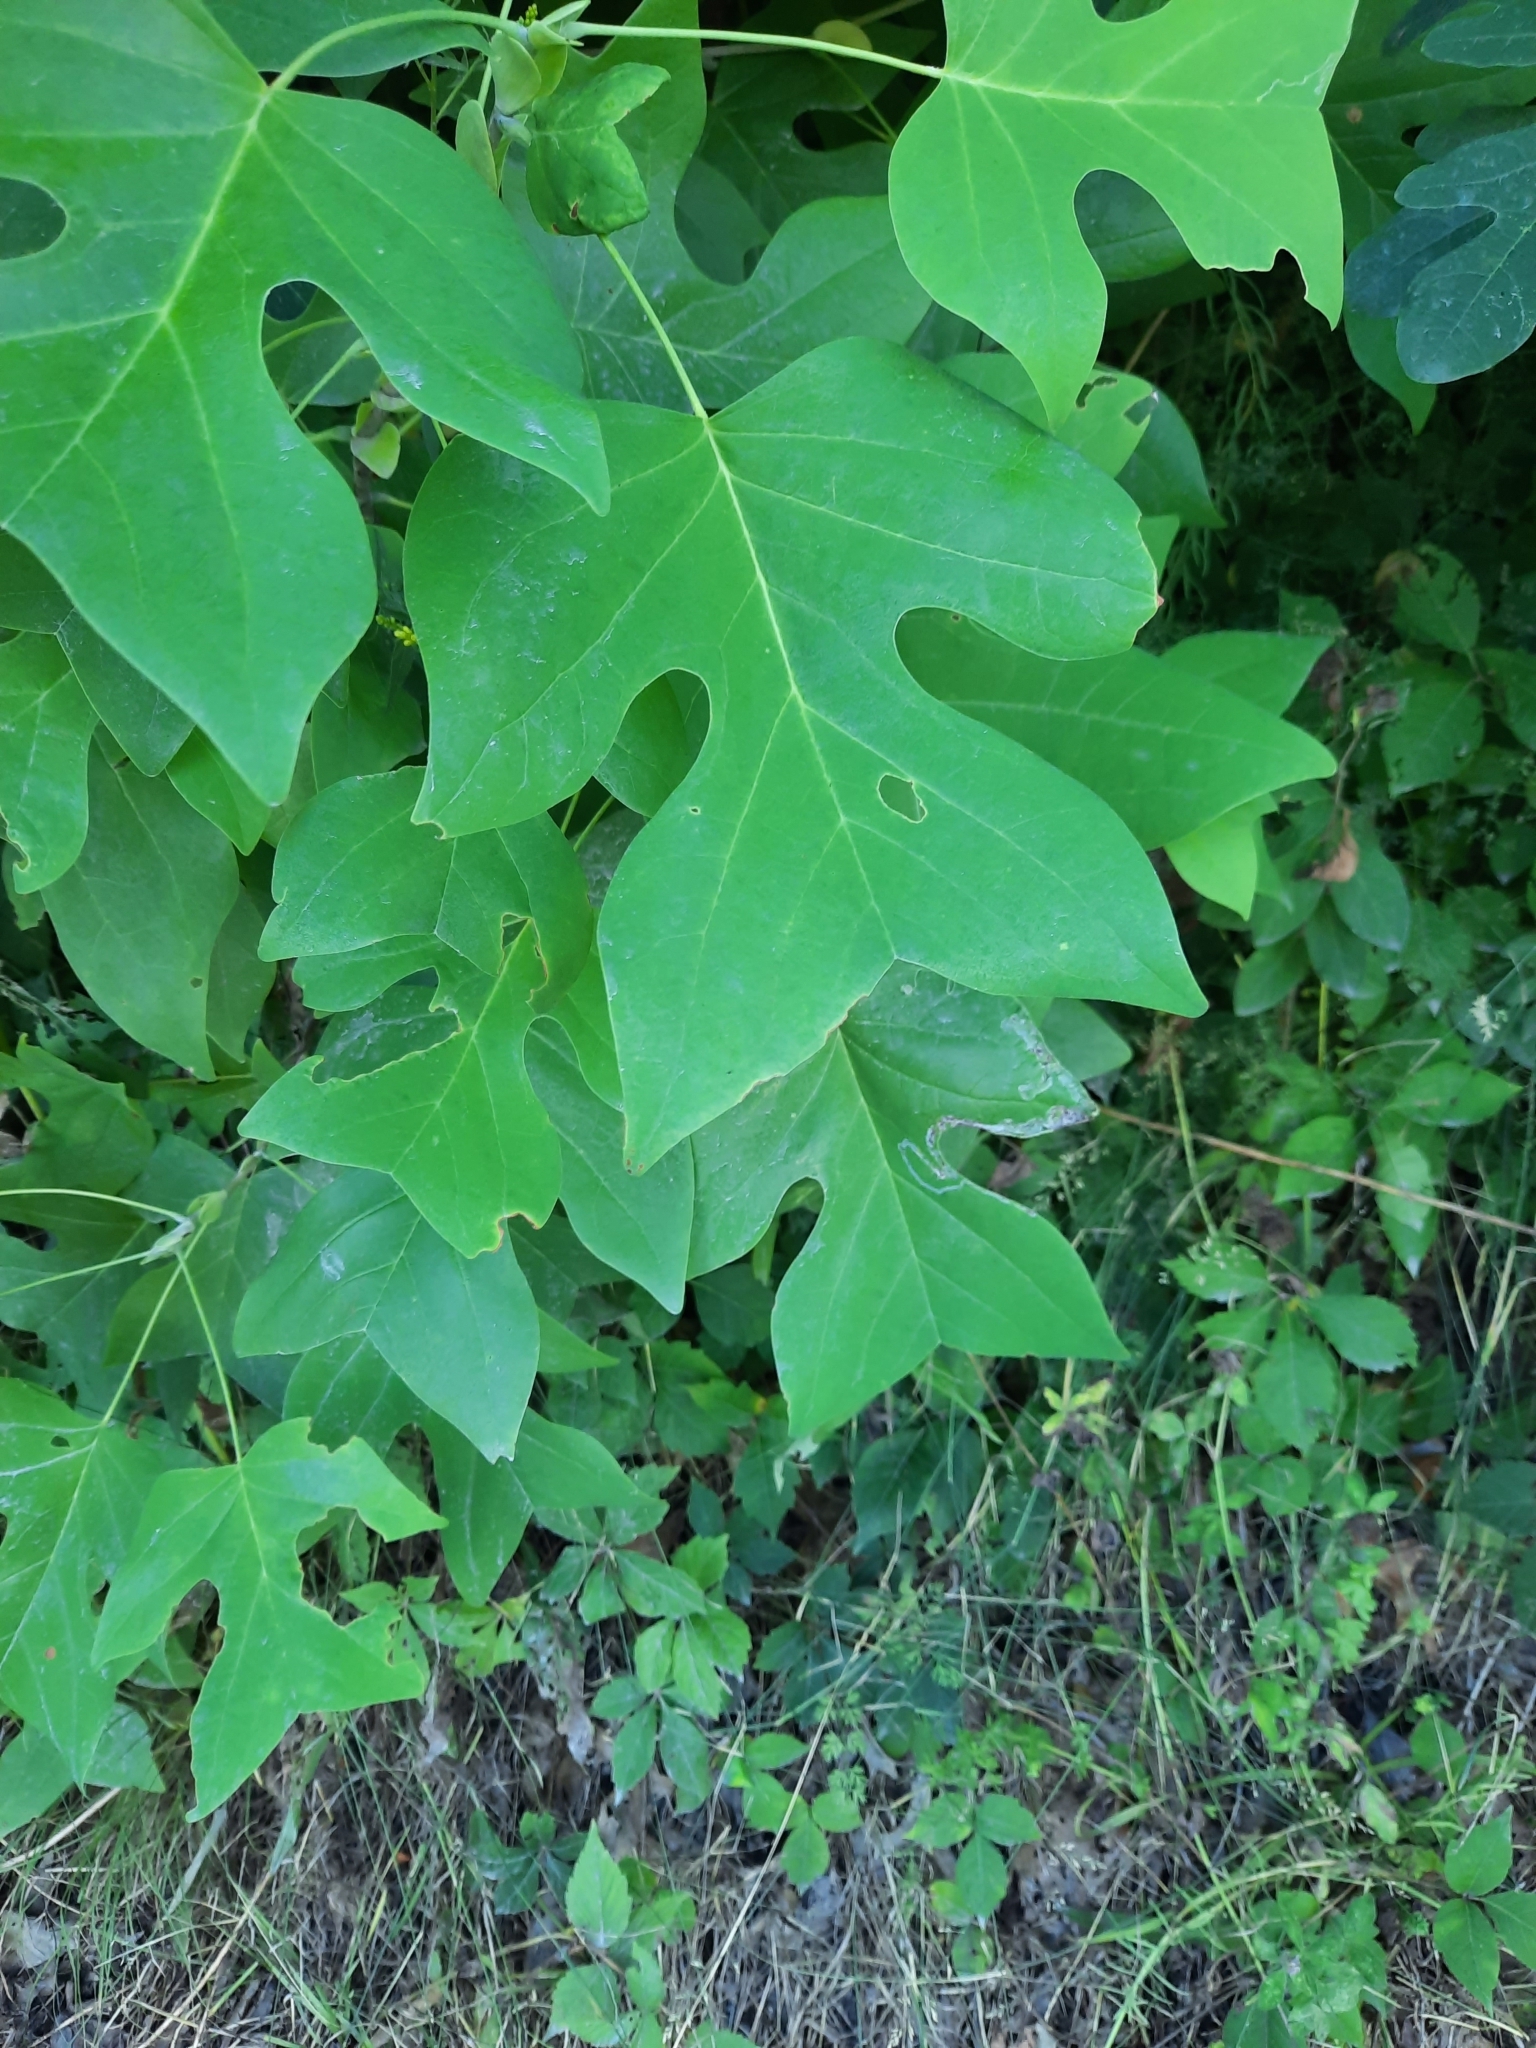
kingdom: Plantae
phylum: Tracheophyta
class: Magnoliopsida
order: Magnoliales
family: Magnoliaceae
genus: Liriodendron
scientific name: Liriodendron tulipifera
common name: Tulip tree
